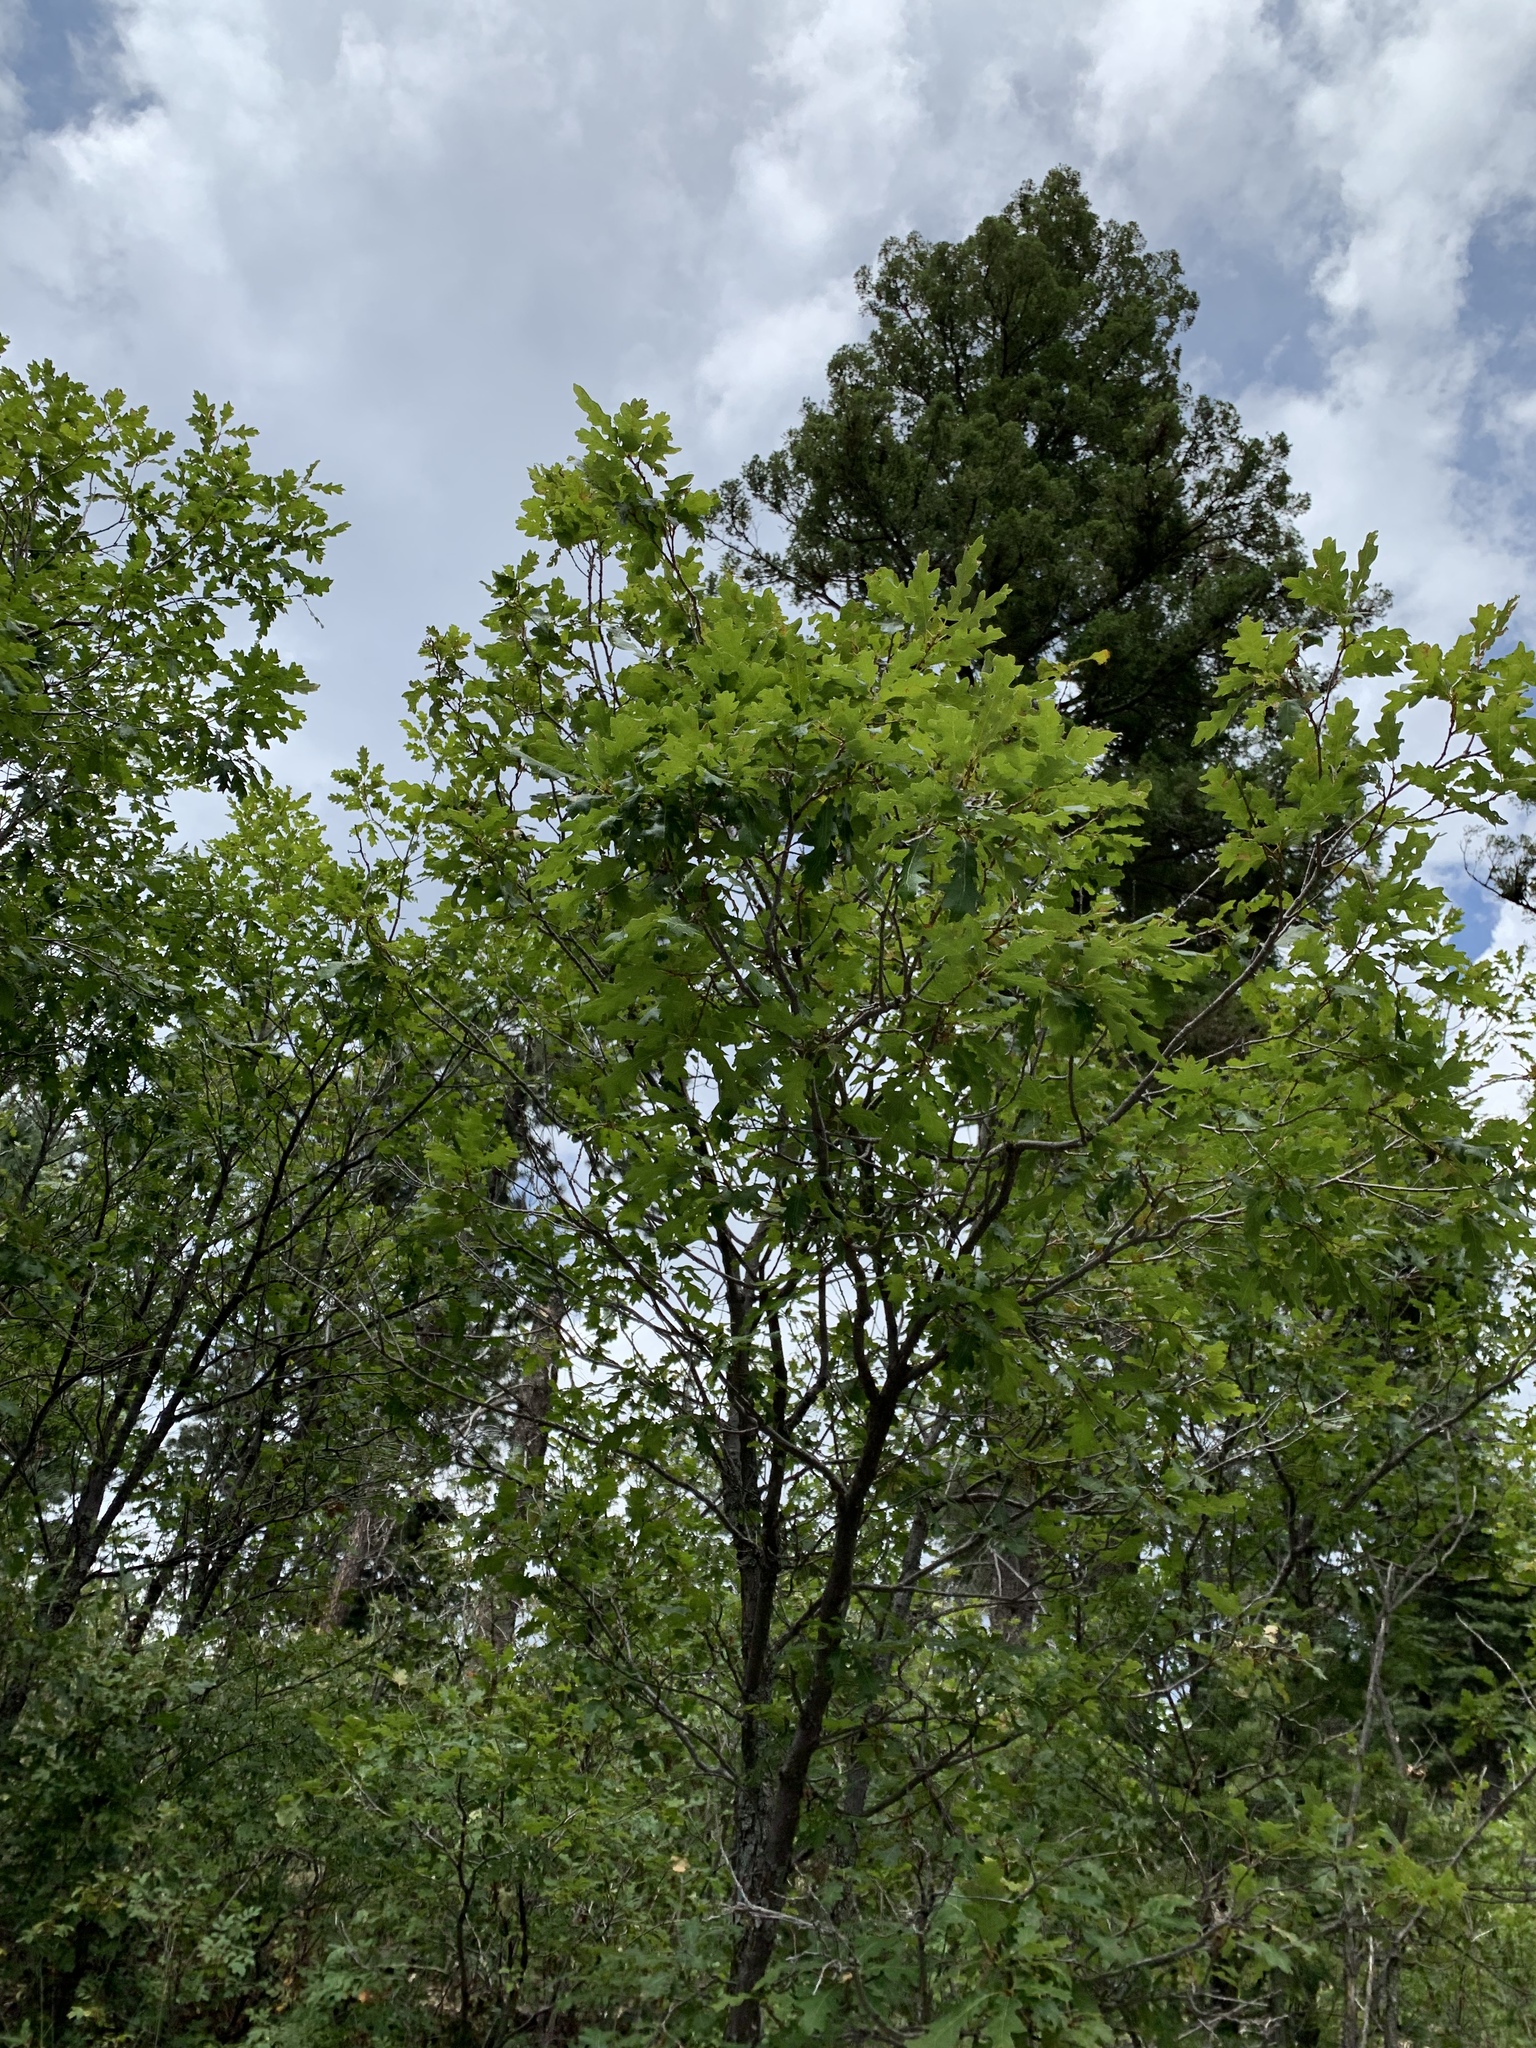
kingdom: Plantae
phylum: Tracheophyta
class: Magnoliopsida
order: Fagales
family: Fagaceae
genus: Quercus
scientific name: Quercus gambelii
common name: Gambel oak
